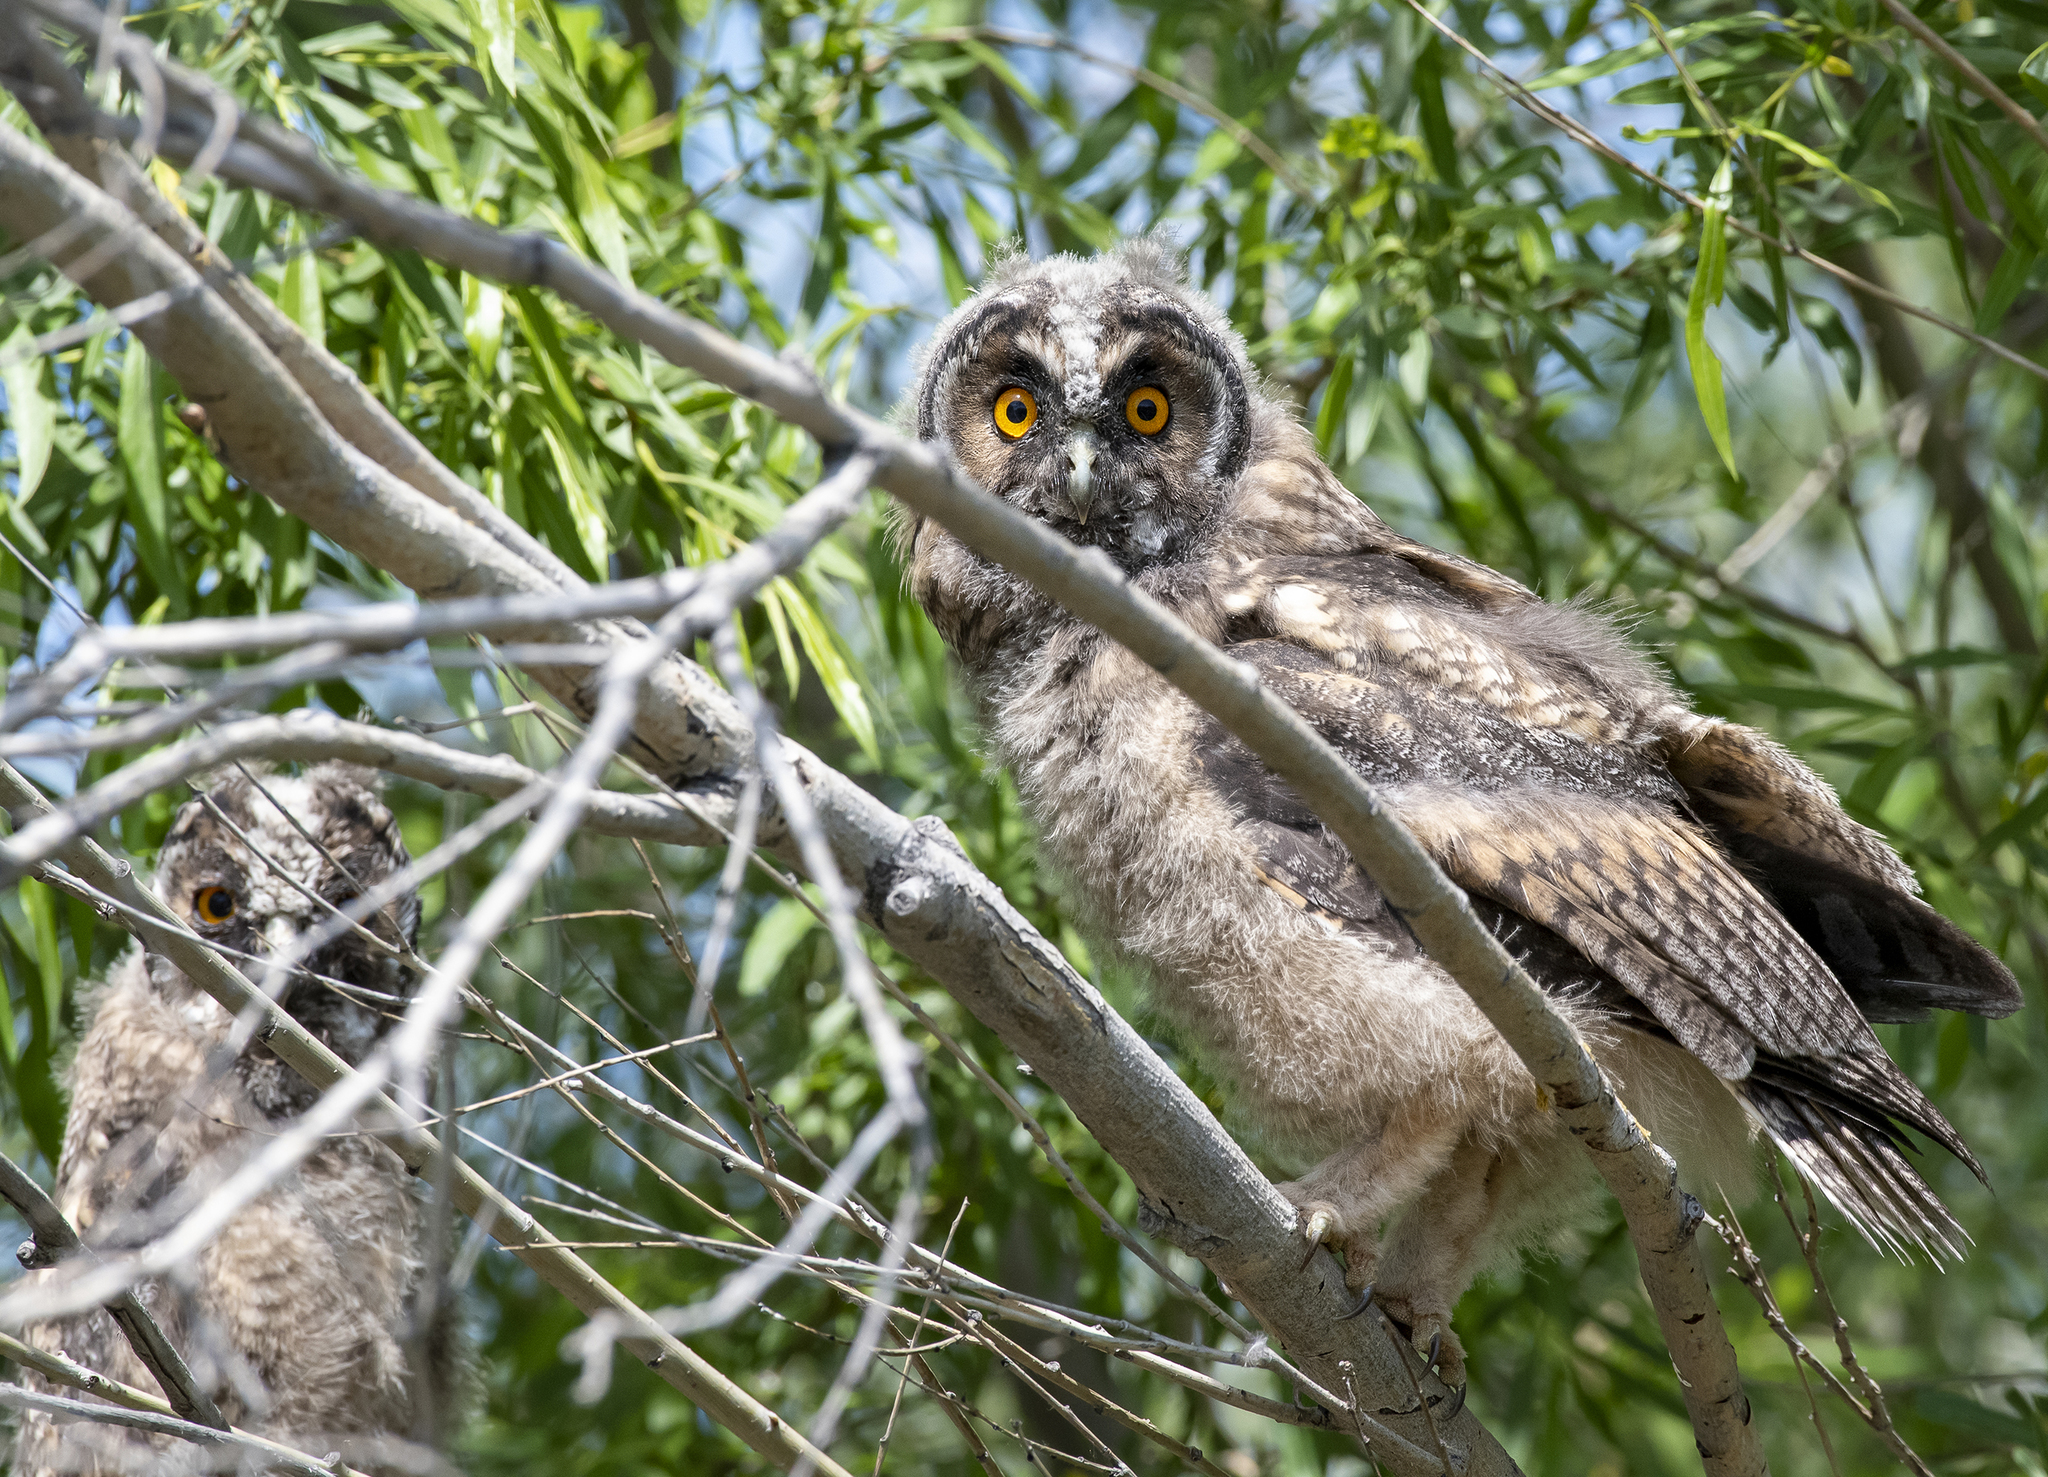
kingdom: Animalia
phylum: Chordata
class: Aves
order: Strigiformes
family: Strigidae
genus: Asio
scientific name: Asio otus
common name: Long-eared owl
